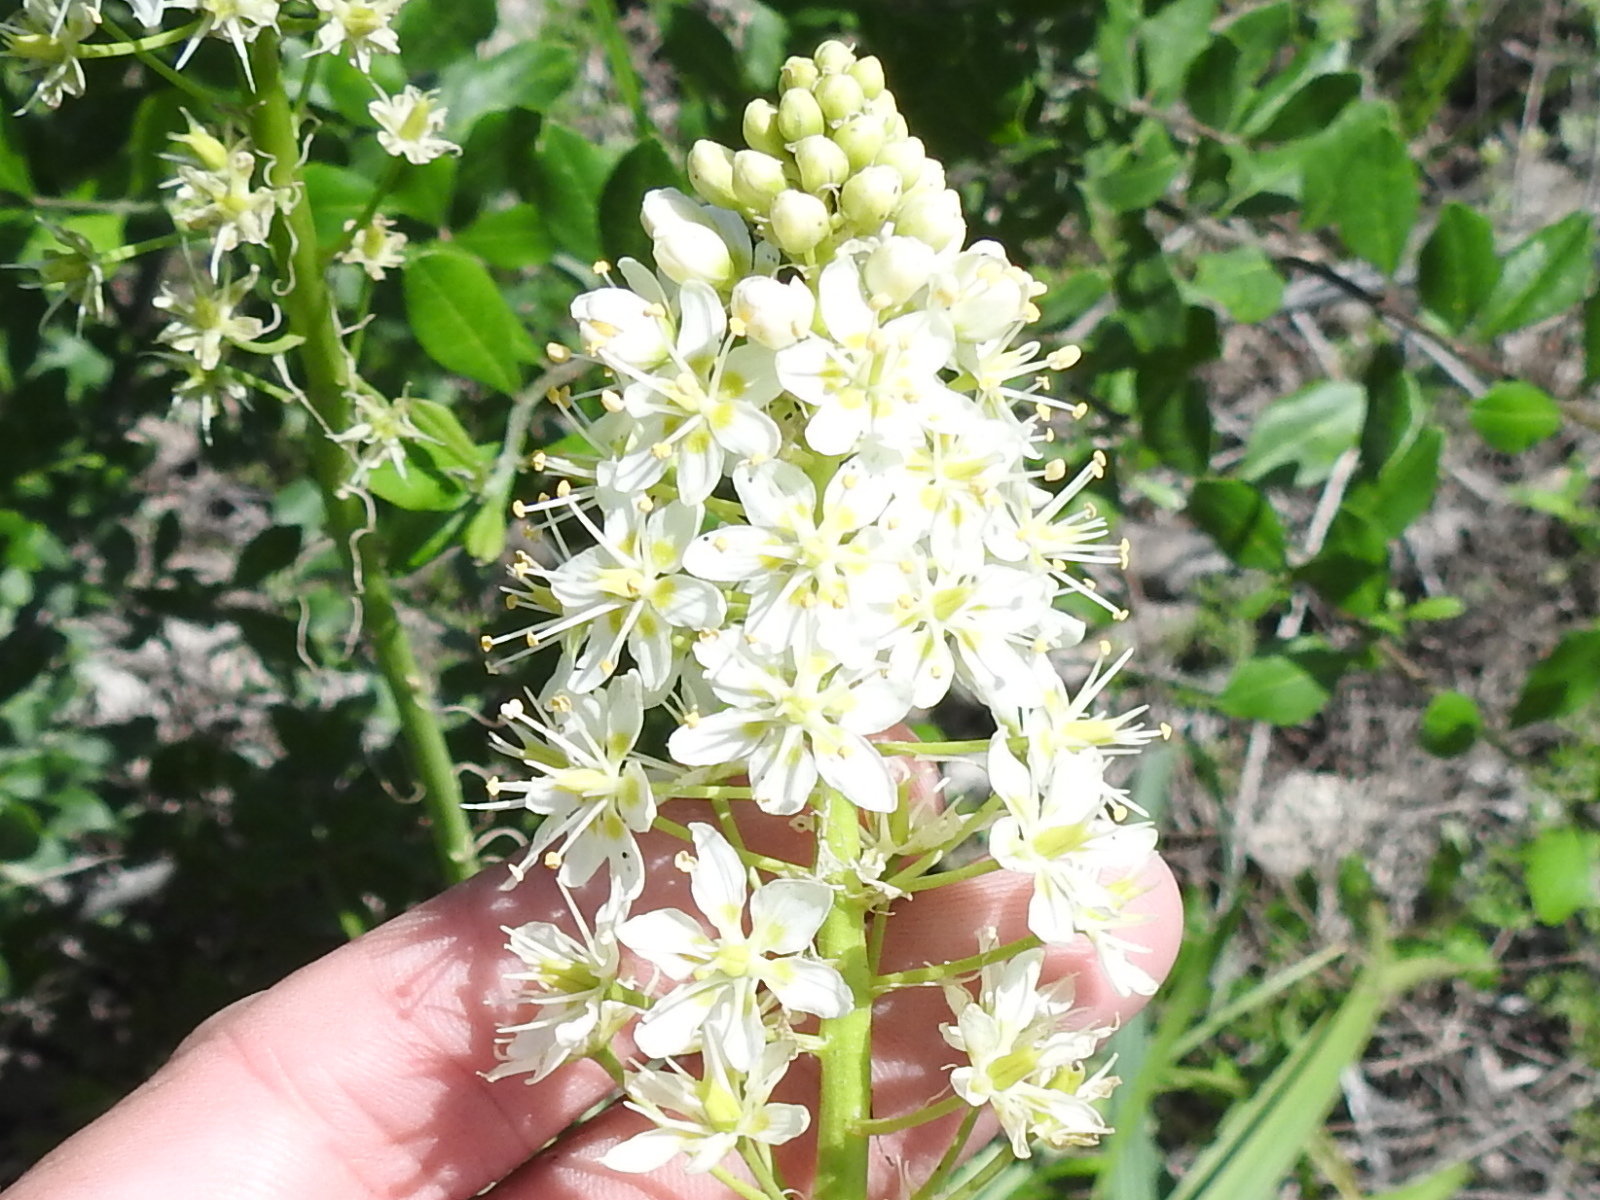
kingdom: Plantae
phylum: Tracheophyta
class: Liliopsida
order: Liliales
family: Melanthiaceae
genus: Toxicoscordion
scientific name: Toxicoscordion nuttallii
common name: Poison sego
